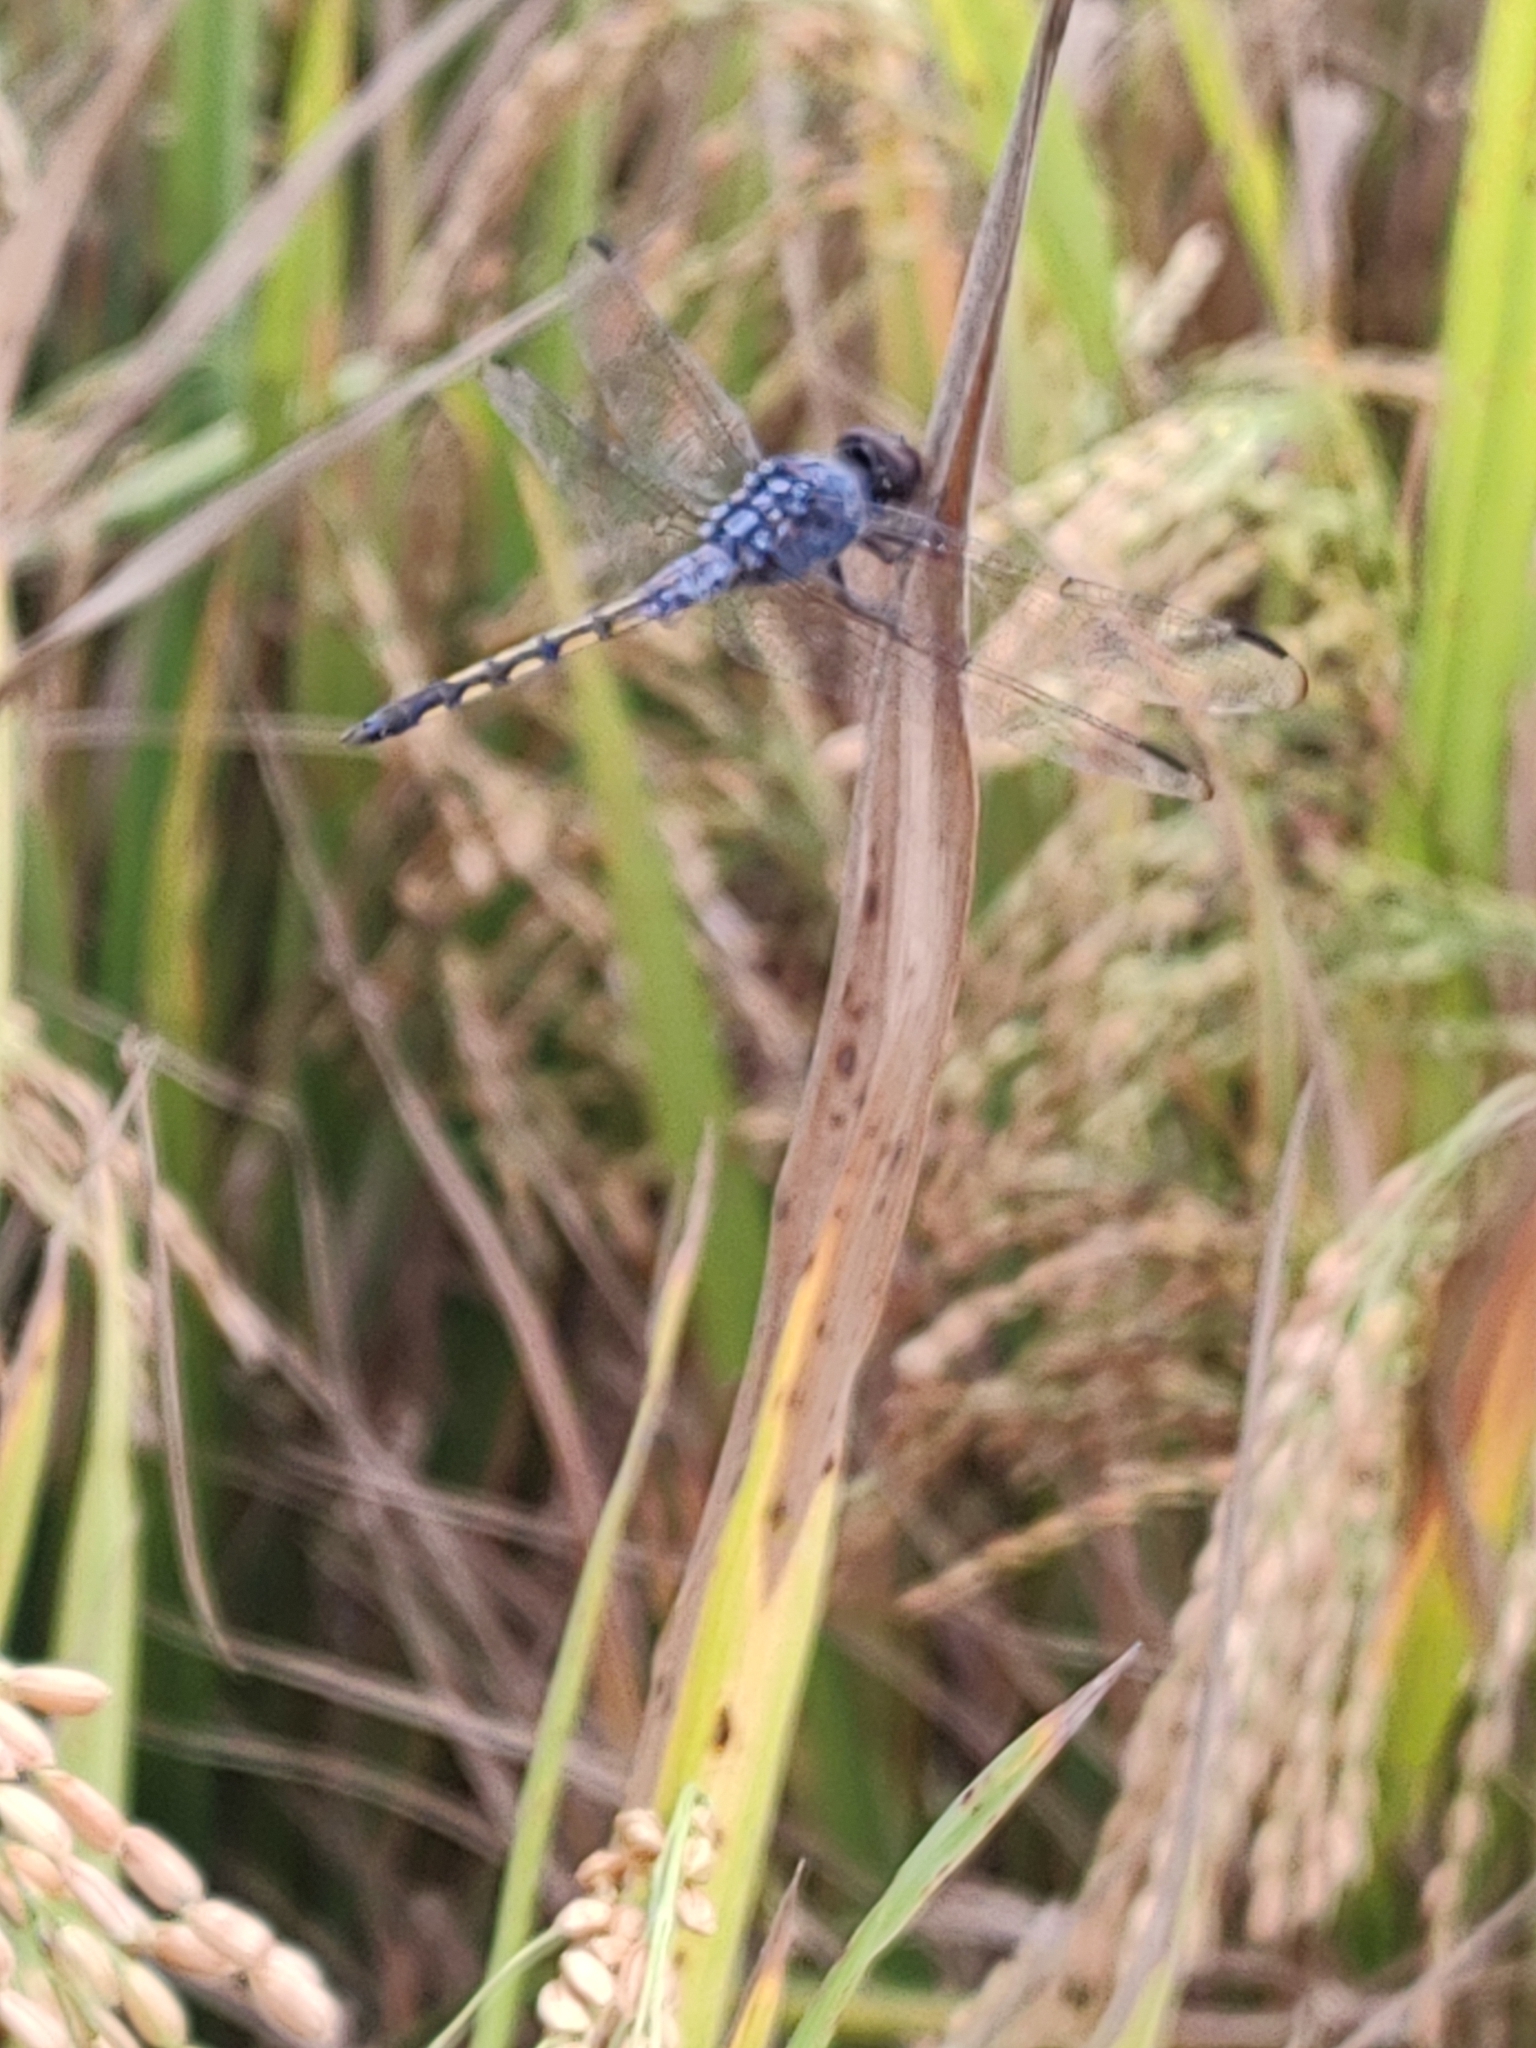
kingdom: Animalia
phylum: Arthropoda
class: Insecta
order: Odonata
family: Libellulidae
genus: Potamarcha
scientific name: Potamarcha congener
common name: Blue chaser
